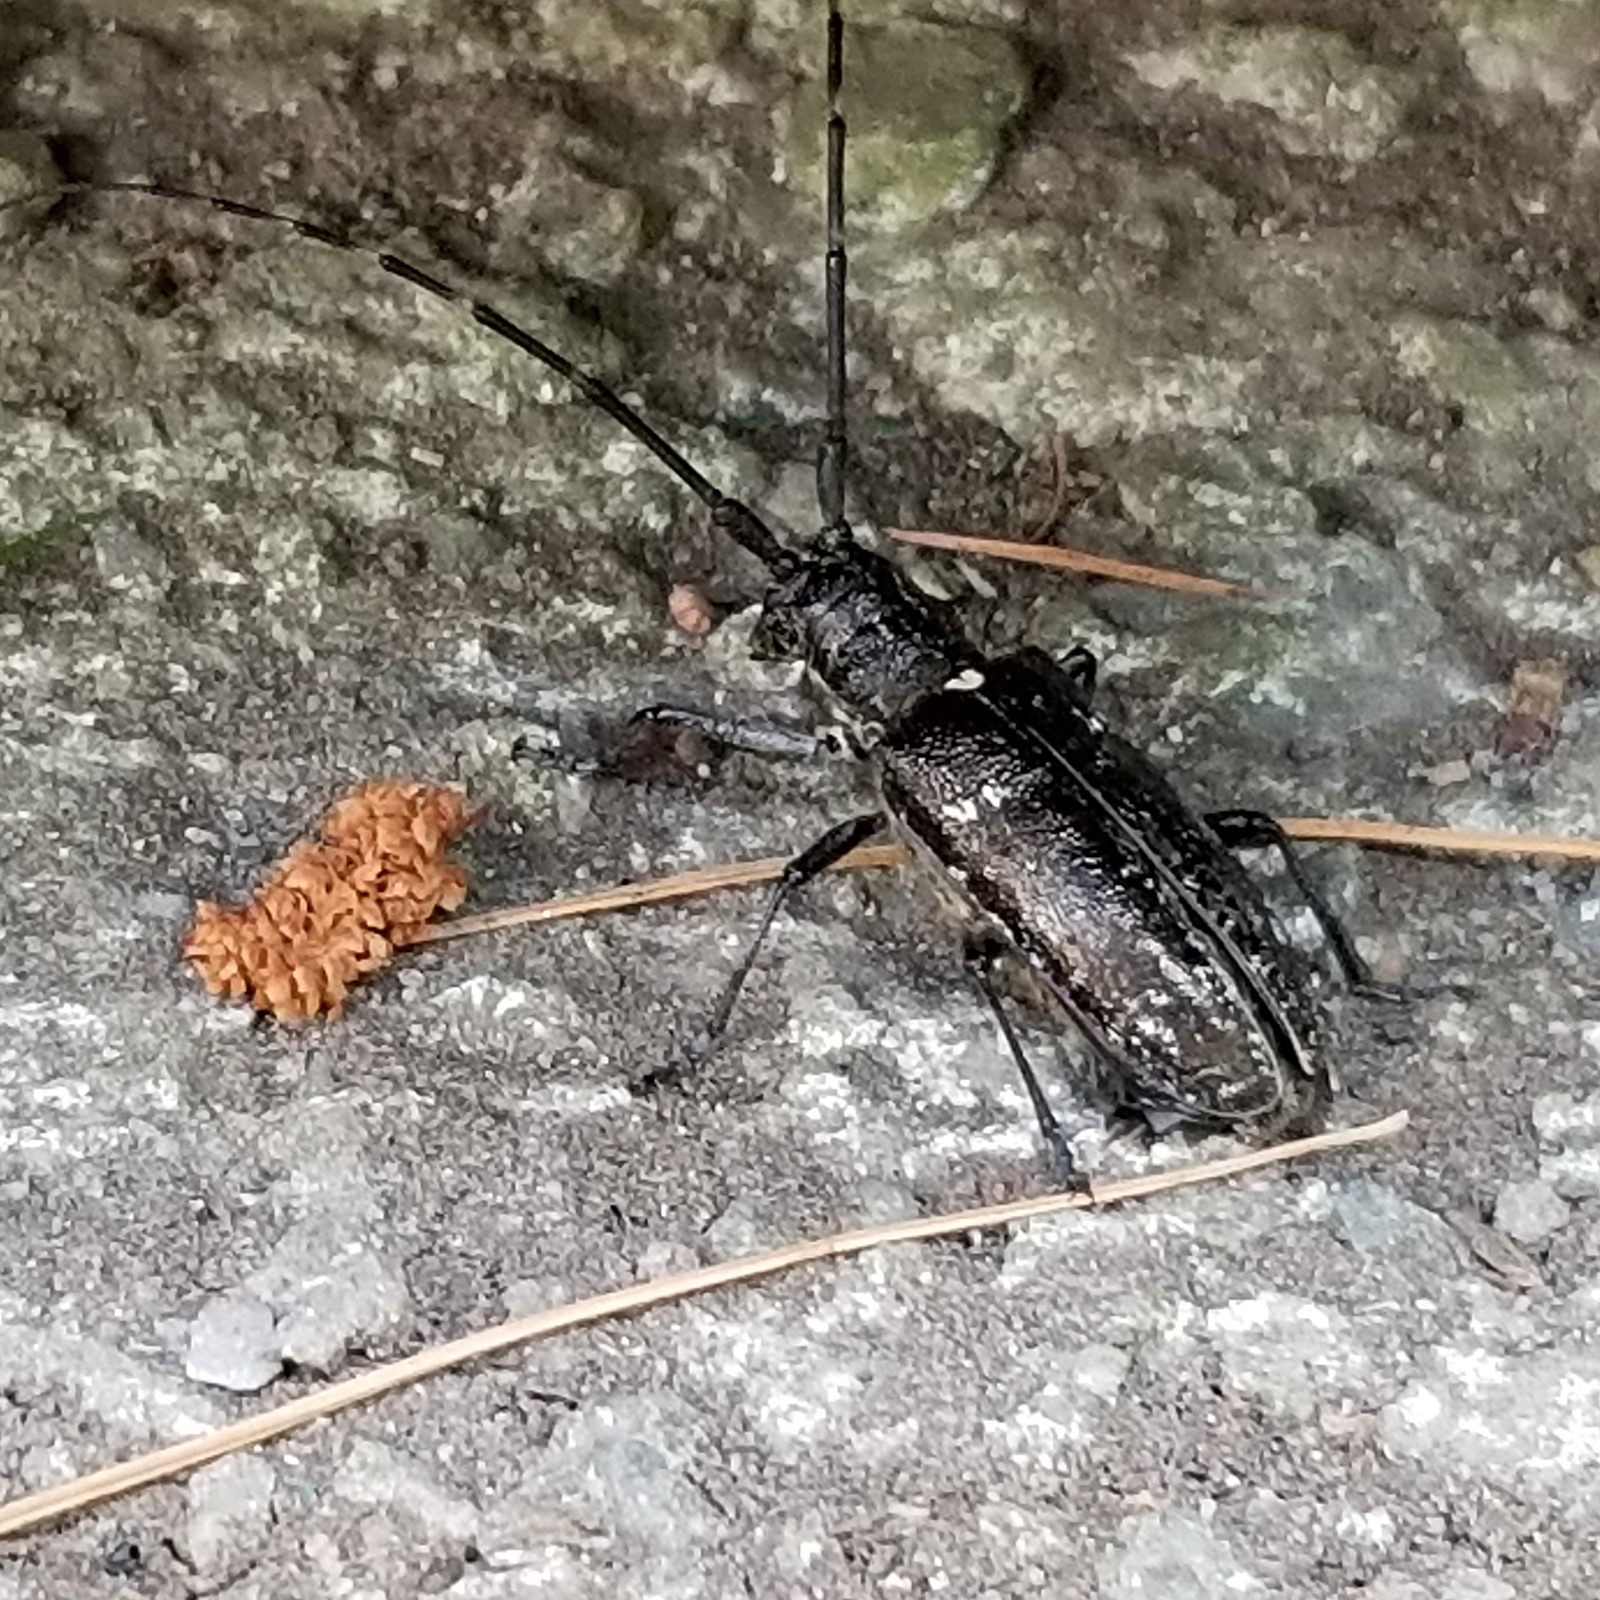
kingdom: Animalia
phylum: Arthropoda
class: Insecta
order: Coleoptera
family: Cerambycidae
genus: Monochamus
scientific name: Monochamus scutellatus
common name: White-spotted sawyer beetle
